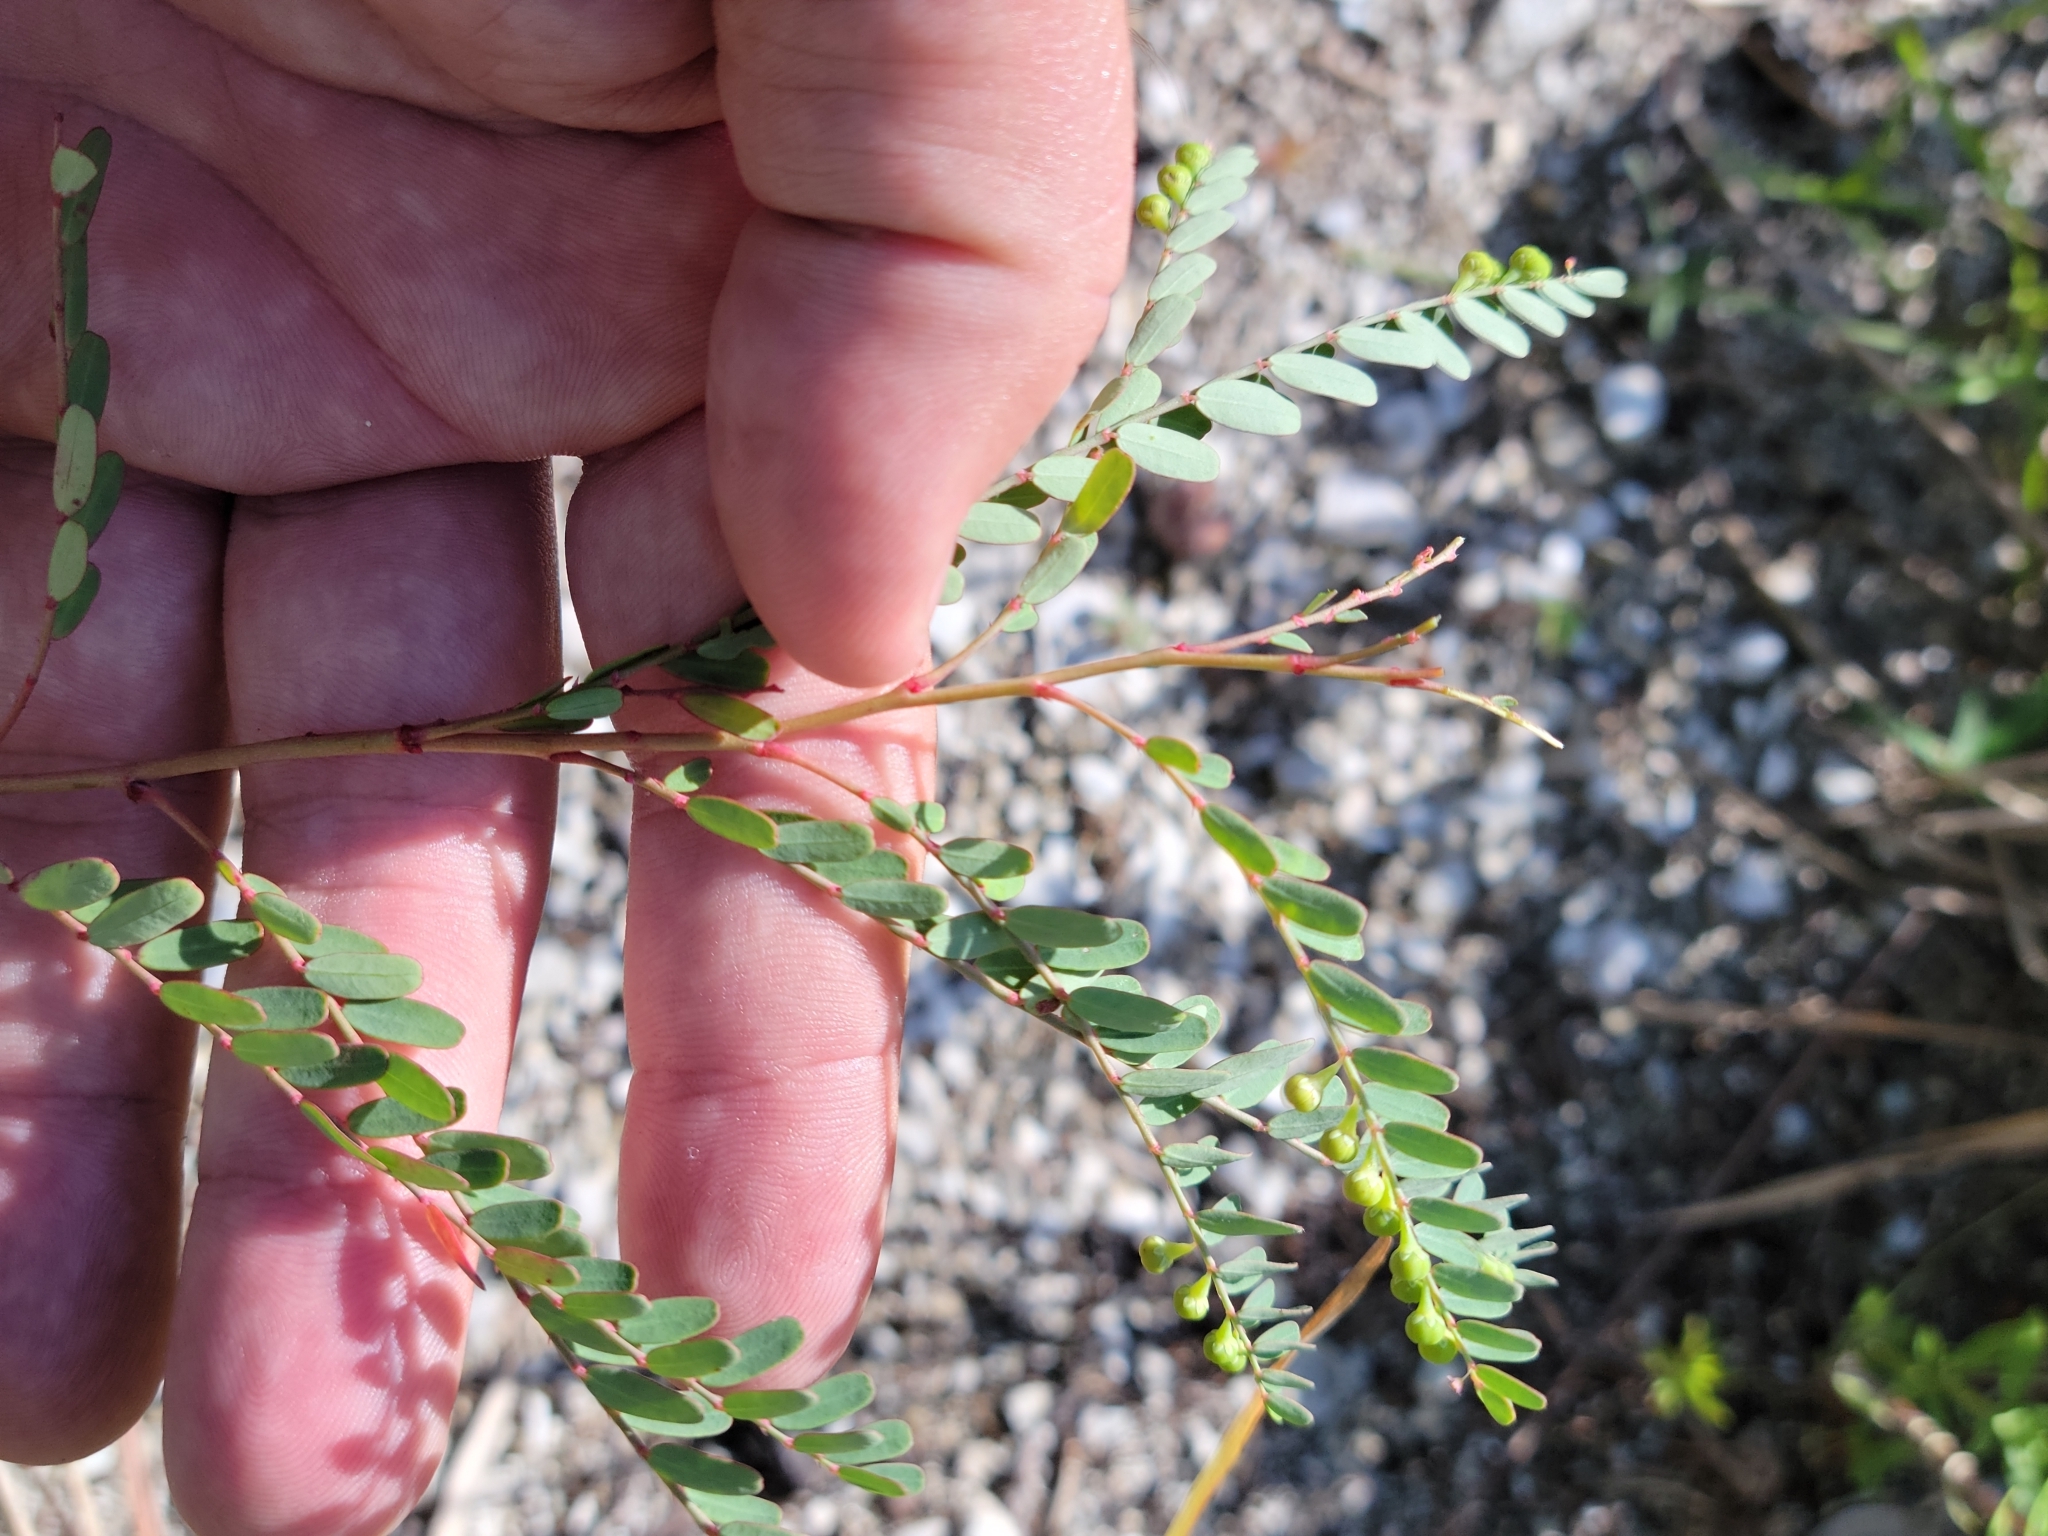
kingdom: Plantae
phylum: Tracheophyta
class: Magnoliopsida
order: Malpighiales
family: Phyllanthaceae
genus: Phyllanthus
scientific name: Phyllanthus abnormis
